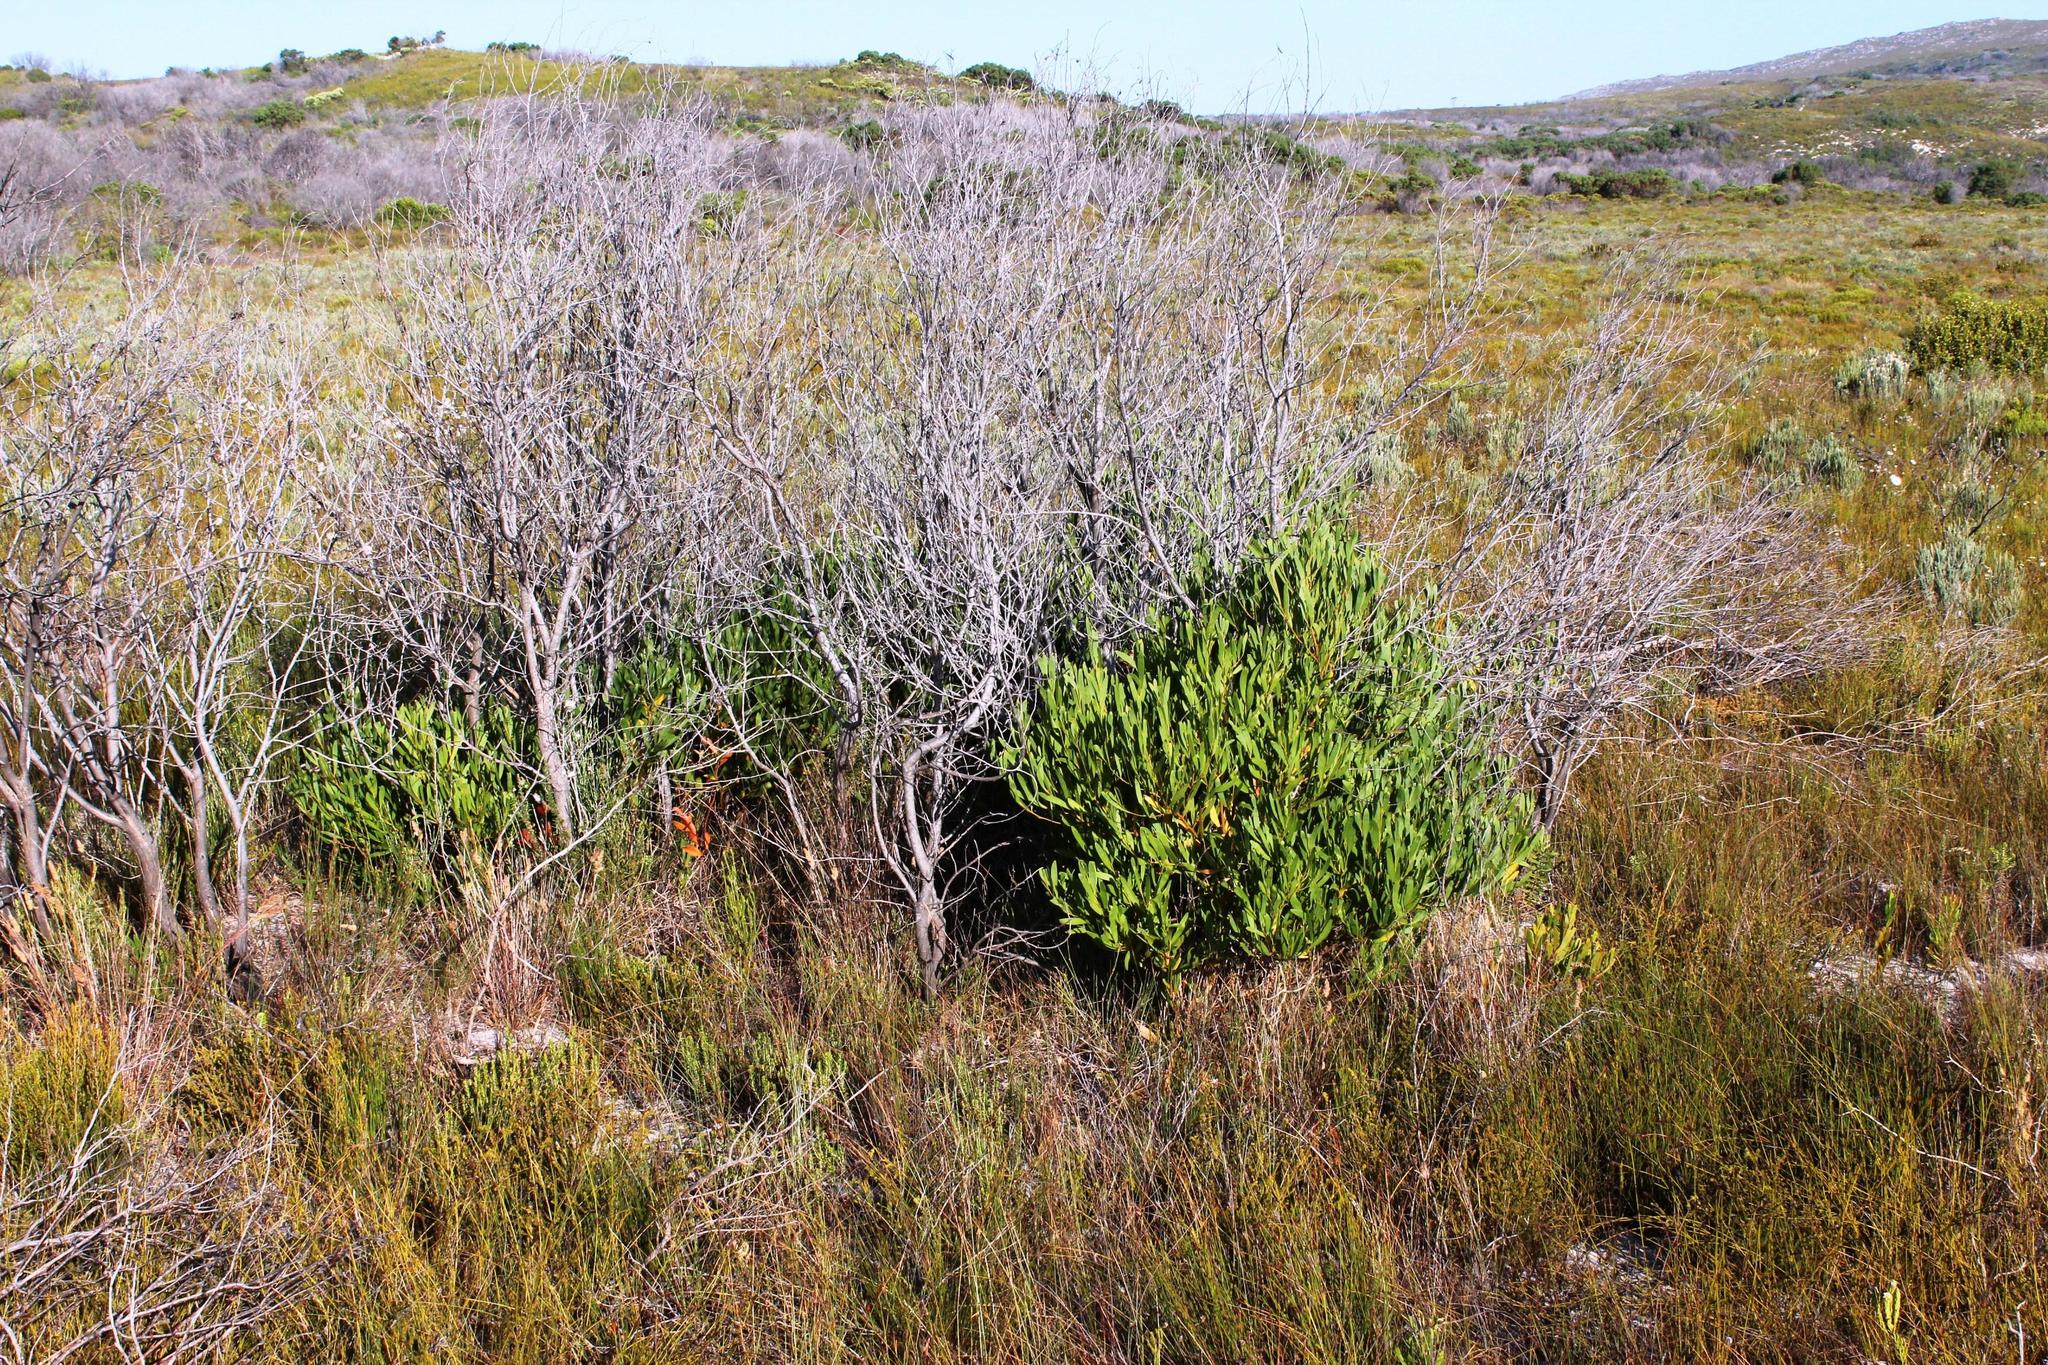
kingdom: Plantae
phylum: Tracheophyta
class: Magnoliopsida
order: Fabales
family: Fabaceae
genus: Acacia
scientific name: Acacia cyclops
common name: Coastal wattle
